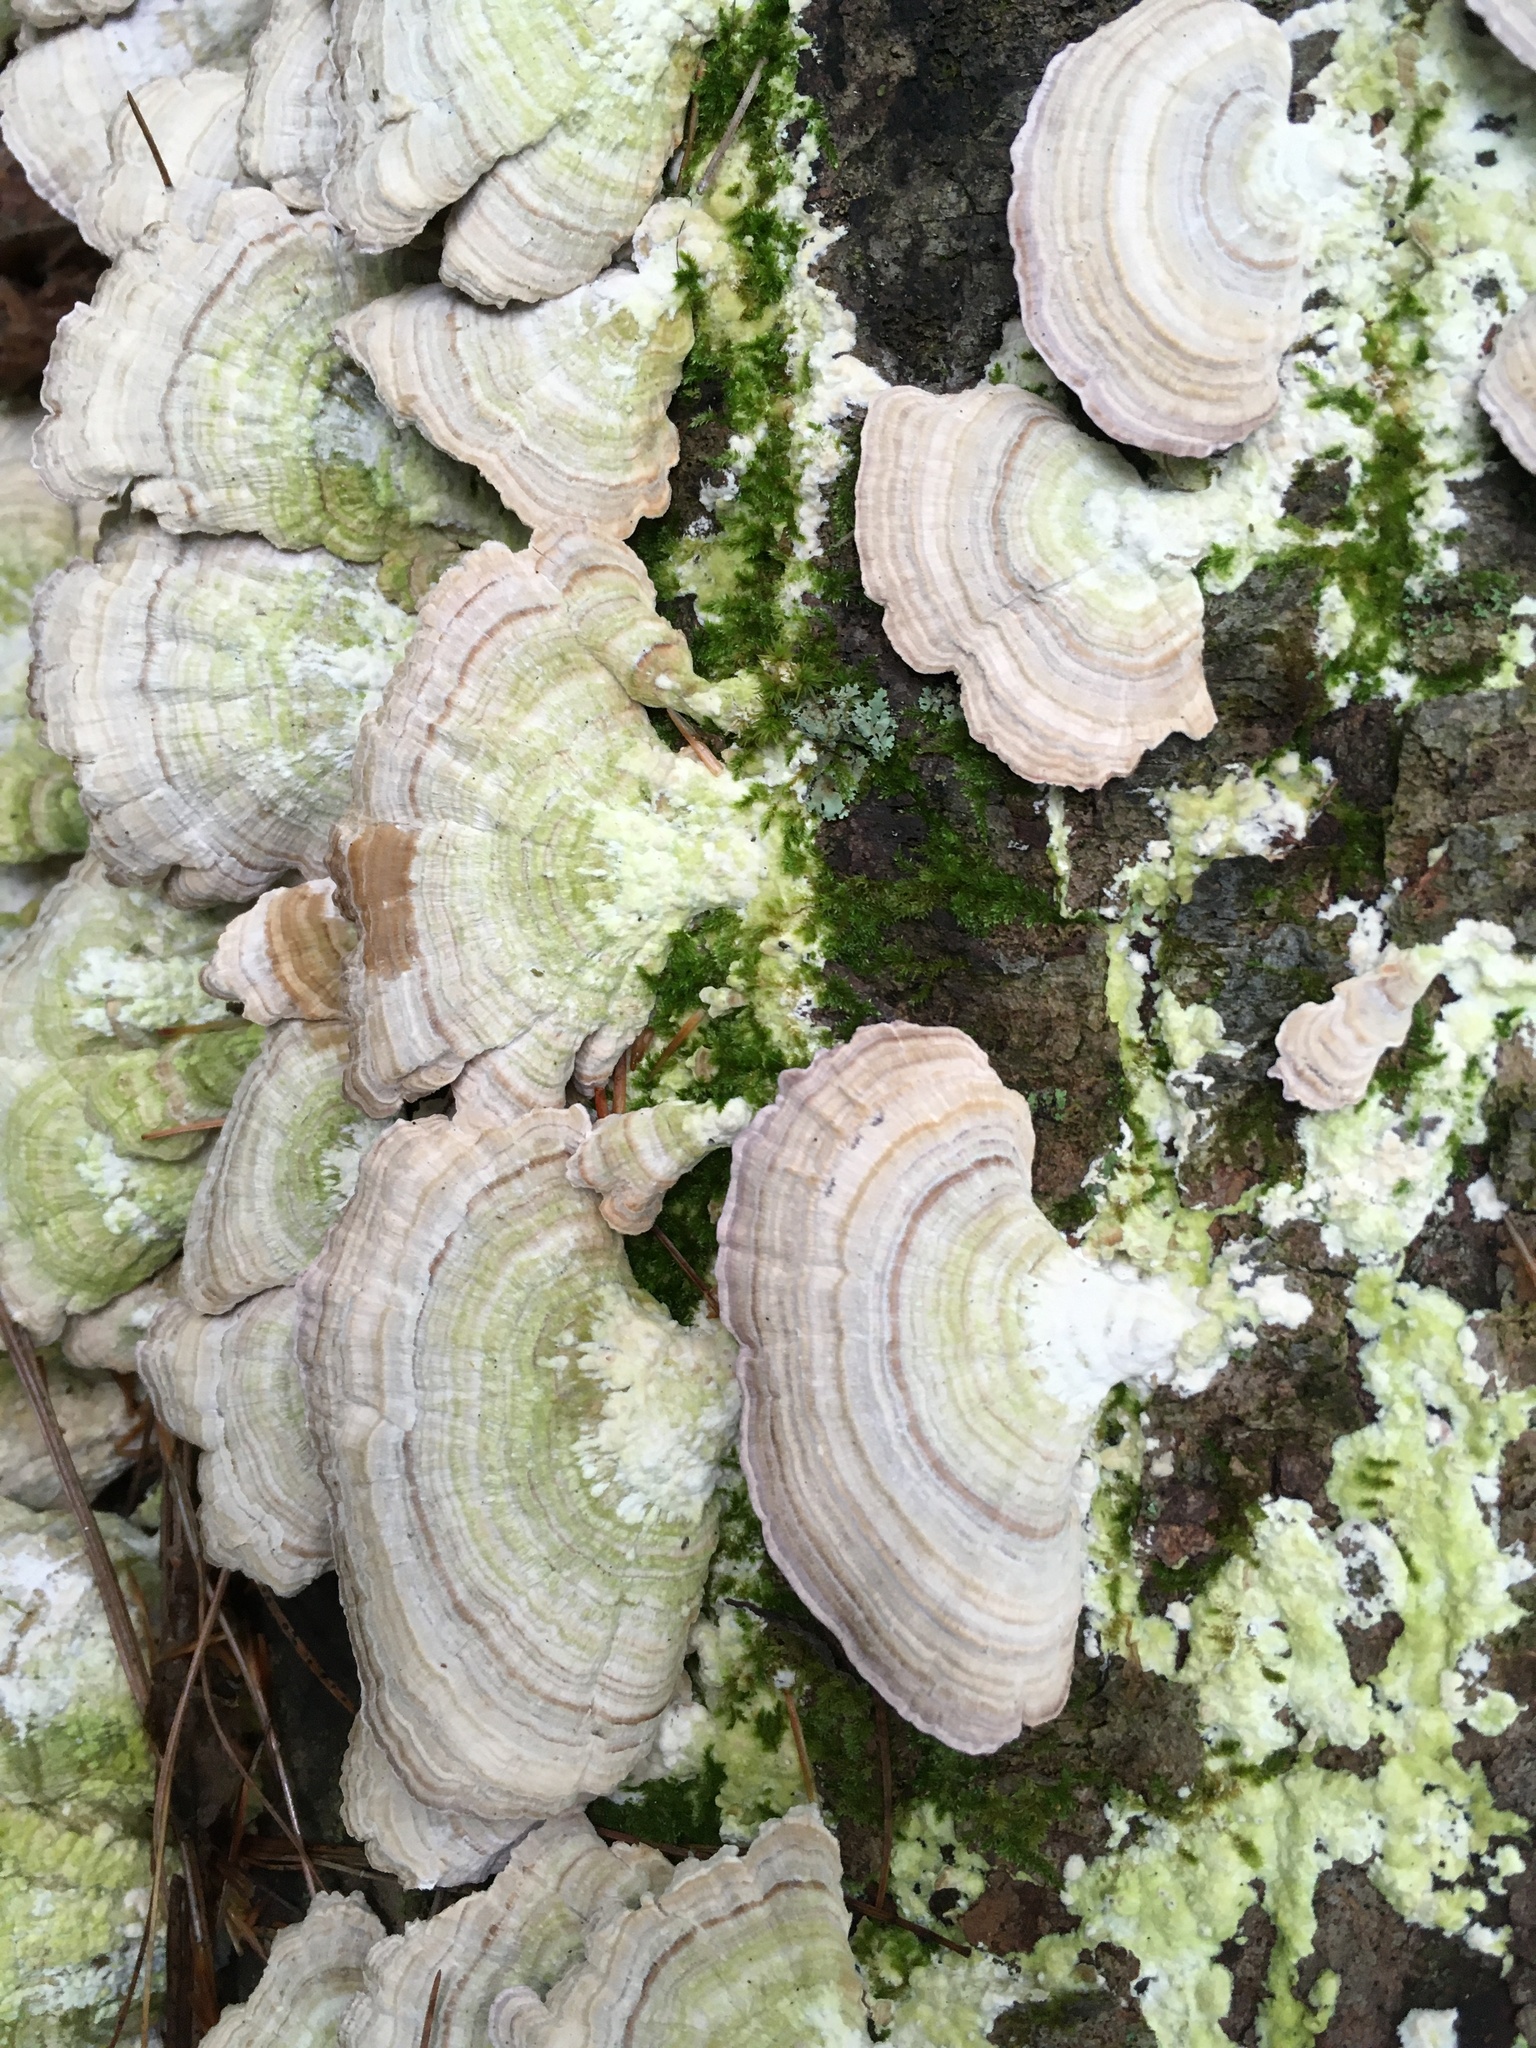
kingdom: Fungi
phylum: Basidiomycota
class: Agaricomycetes
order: Hymenochaetales
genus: Trichaptum
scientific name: Trichaptum biforme
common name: Violet-toothed polypore
